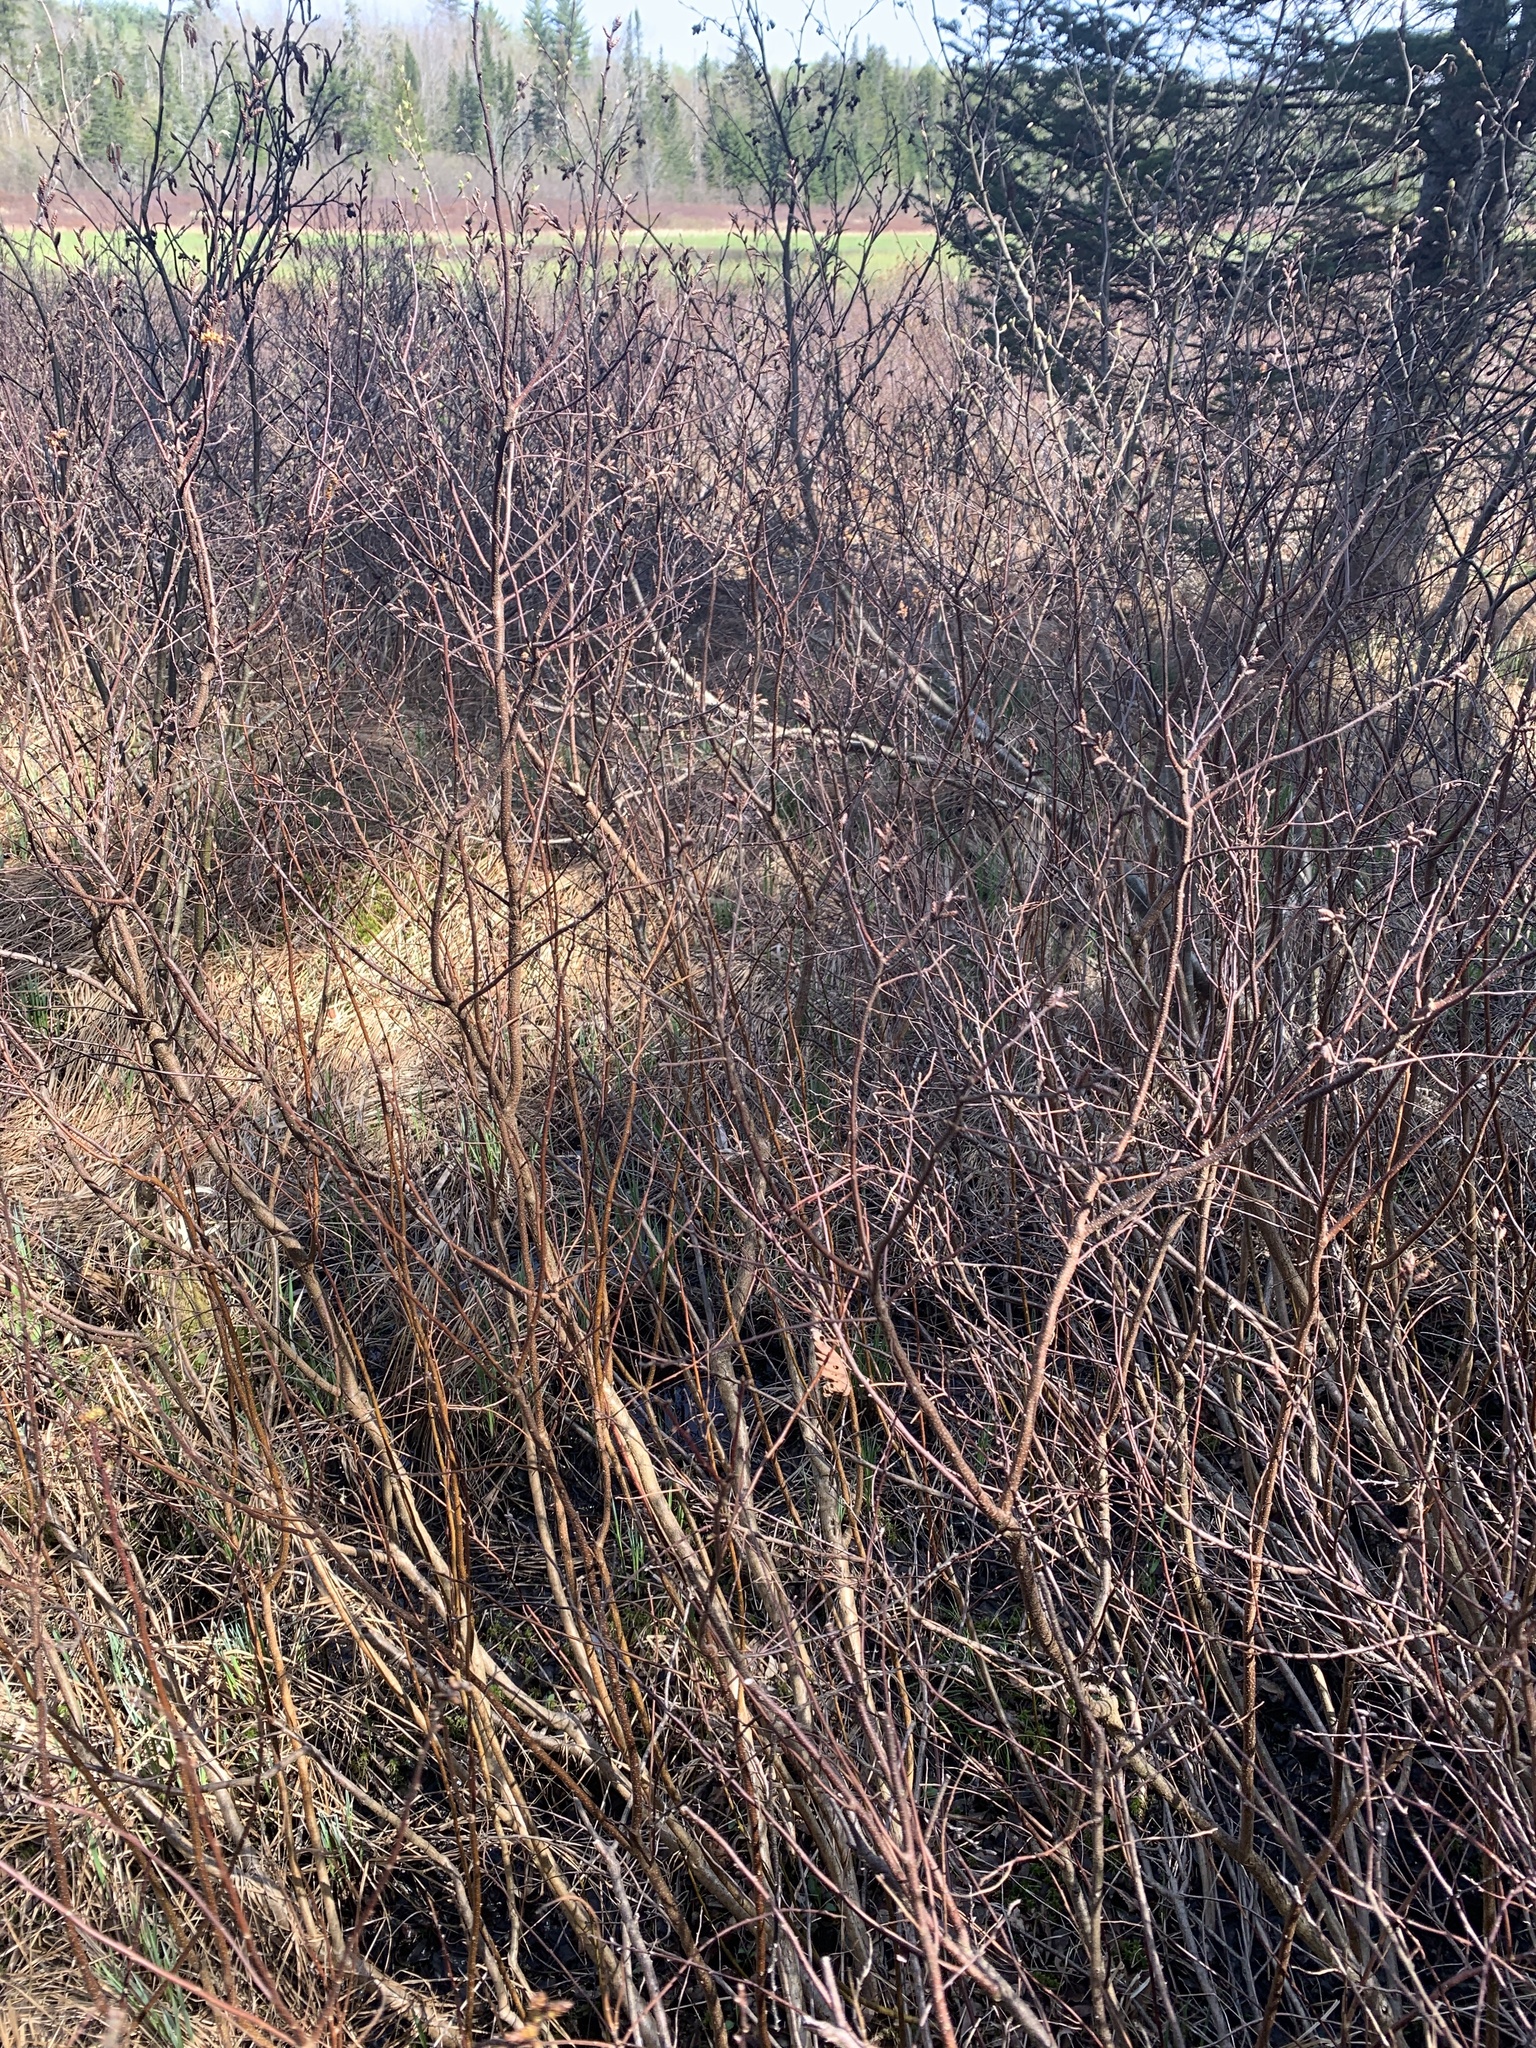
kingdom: Plantae
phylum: Tracheophyta
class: Magnoliopsida
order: Fagales
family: Myricaceae
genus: Myrica
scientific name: Myrica gale
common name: Sweet gale
